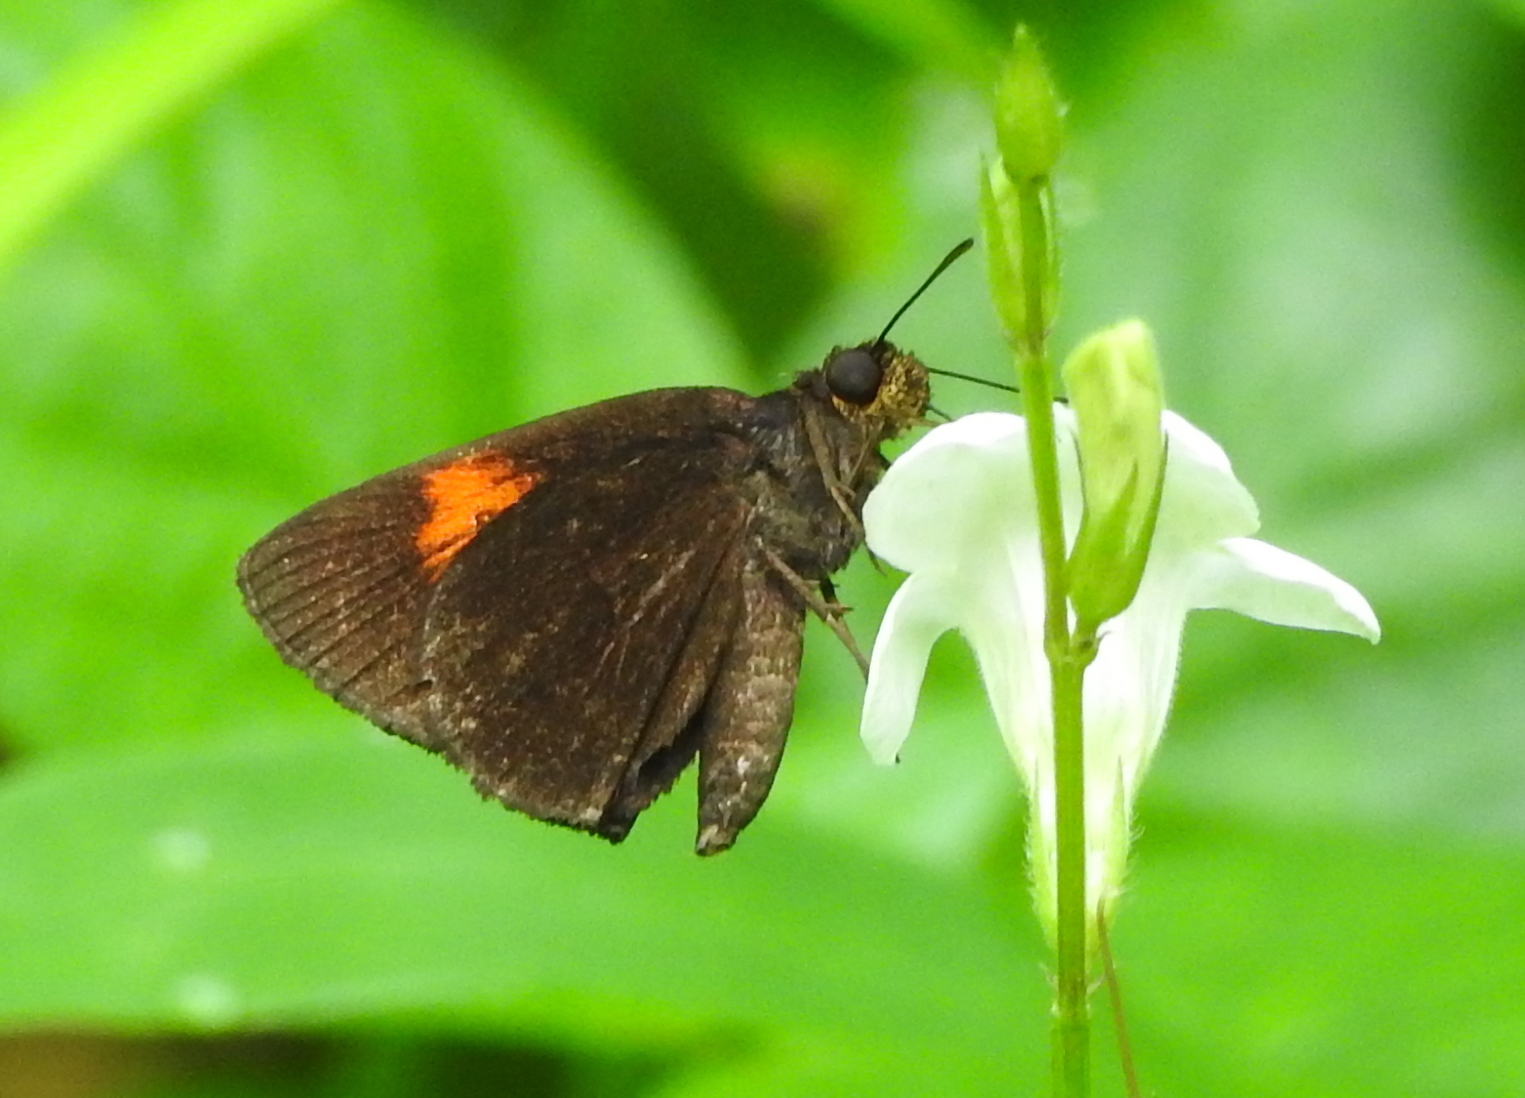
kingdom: Animalia
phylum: Arthropoda
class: Insecta
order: Lepidoptera
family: Hesperiidae
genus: Koruthaialos
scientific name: Koruthaialos sindu
